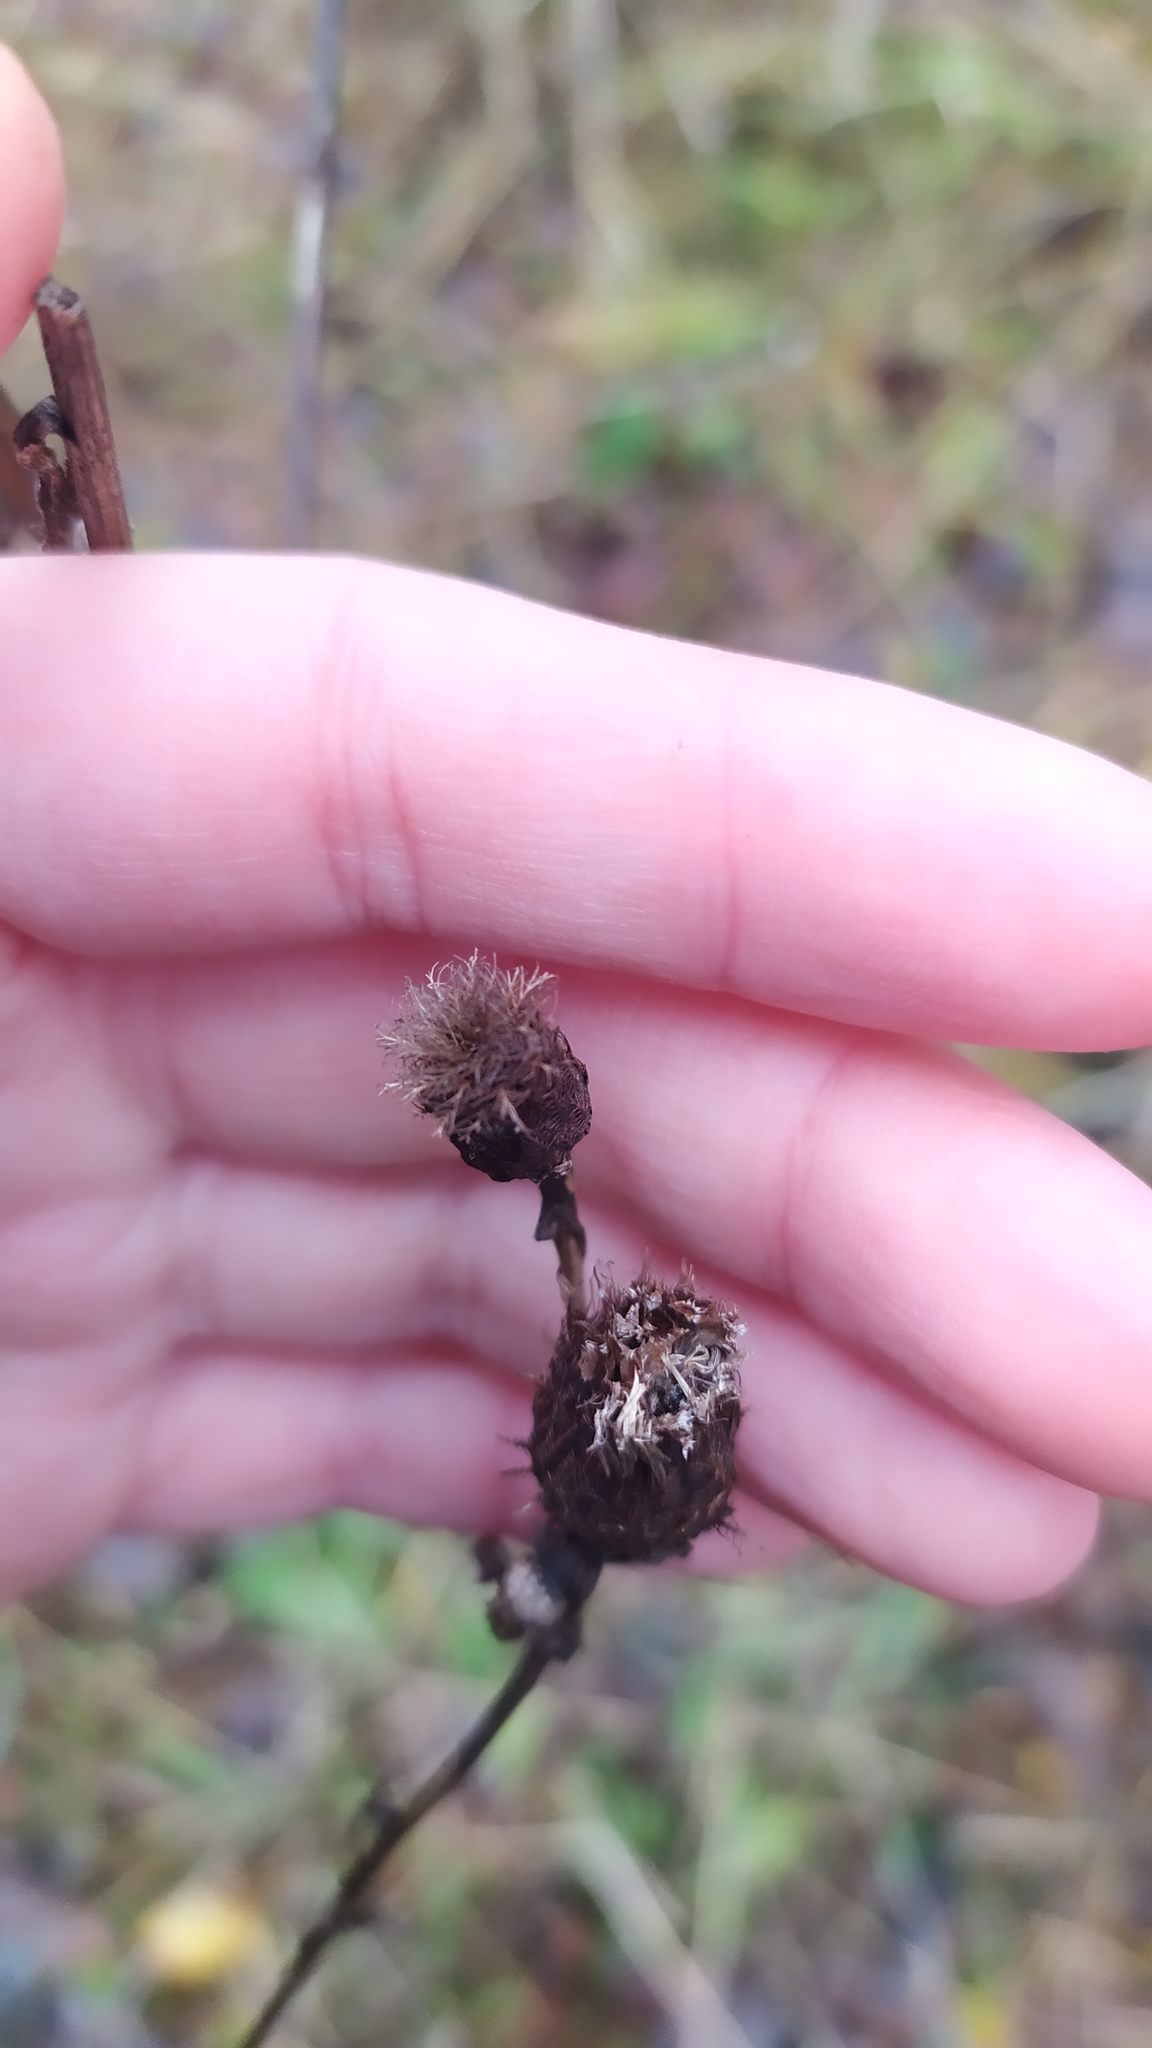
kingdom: Plantae
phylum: Tracheophyta
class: Magnoliopsida
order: Asterales
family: Asteraceae
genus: Centaurea
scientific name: Centaurea phrygia
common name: Wig knapweed
